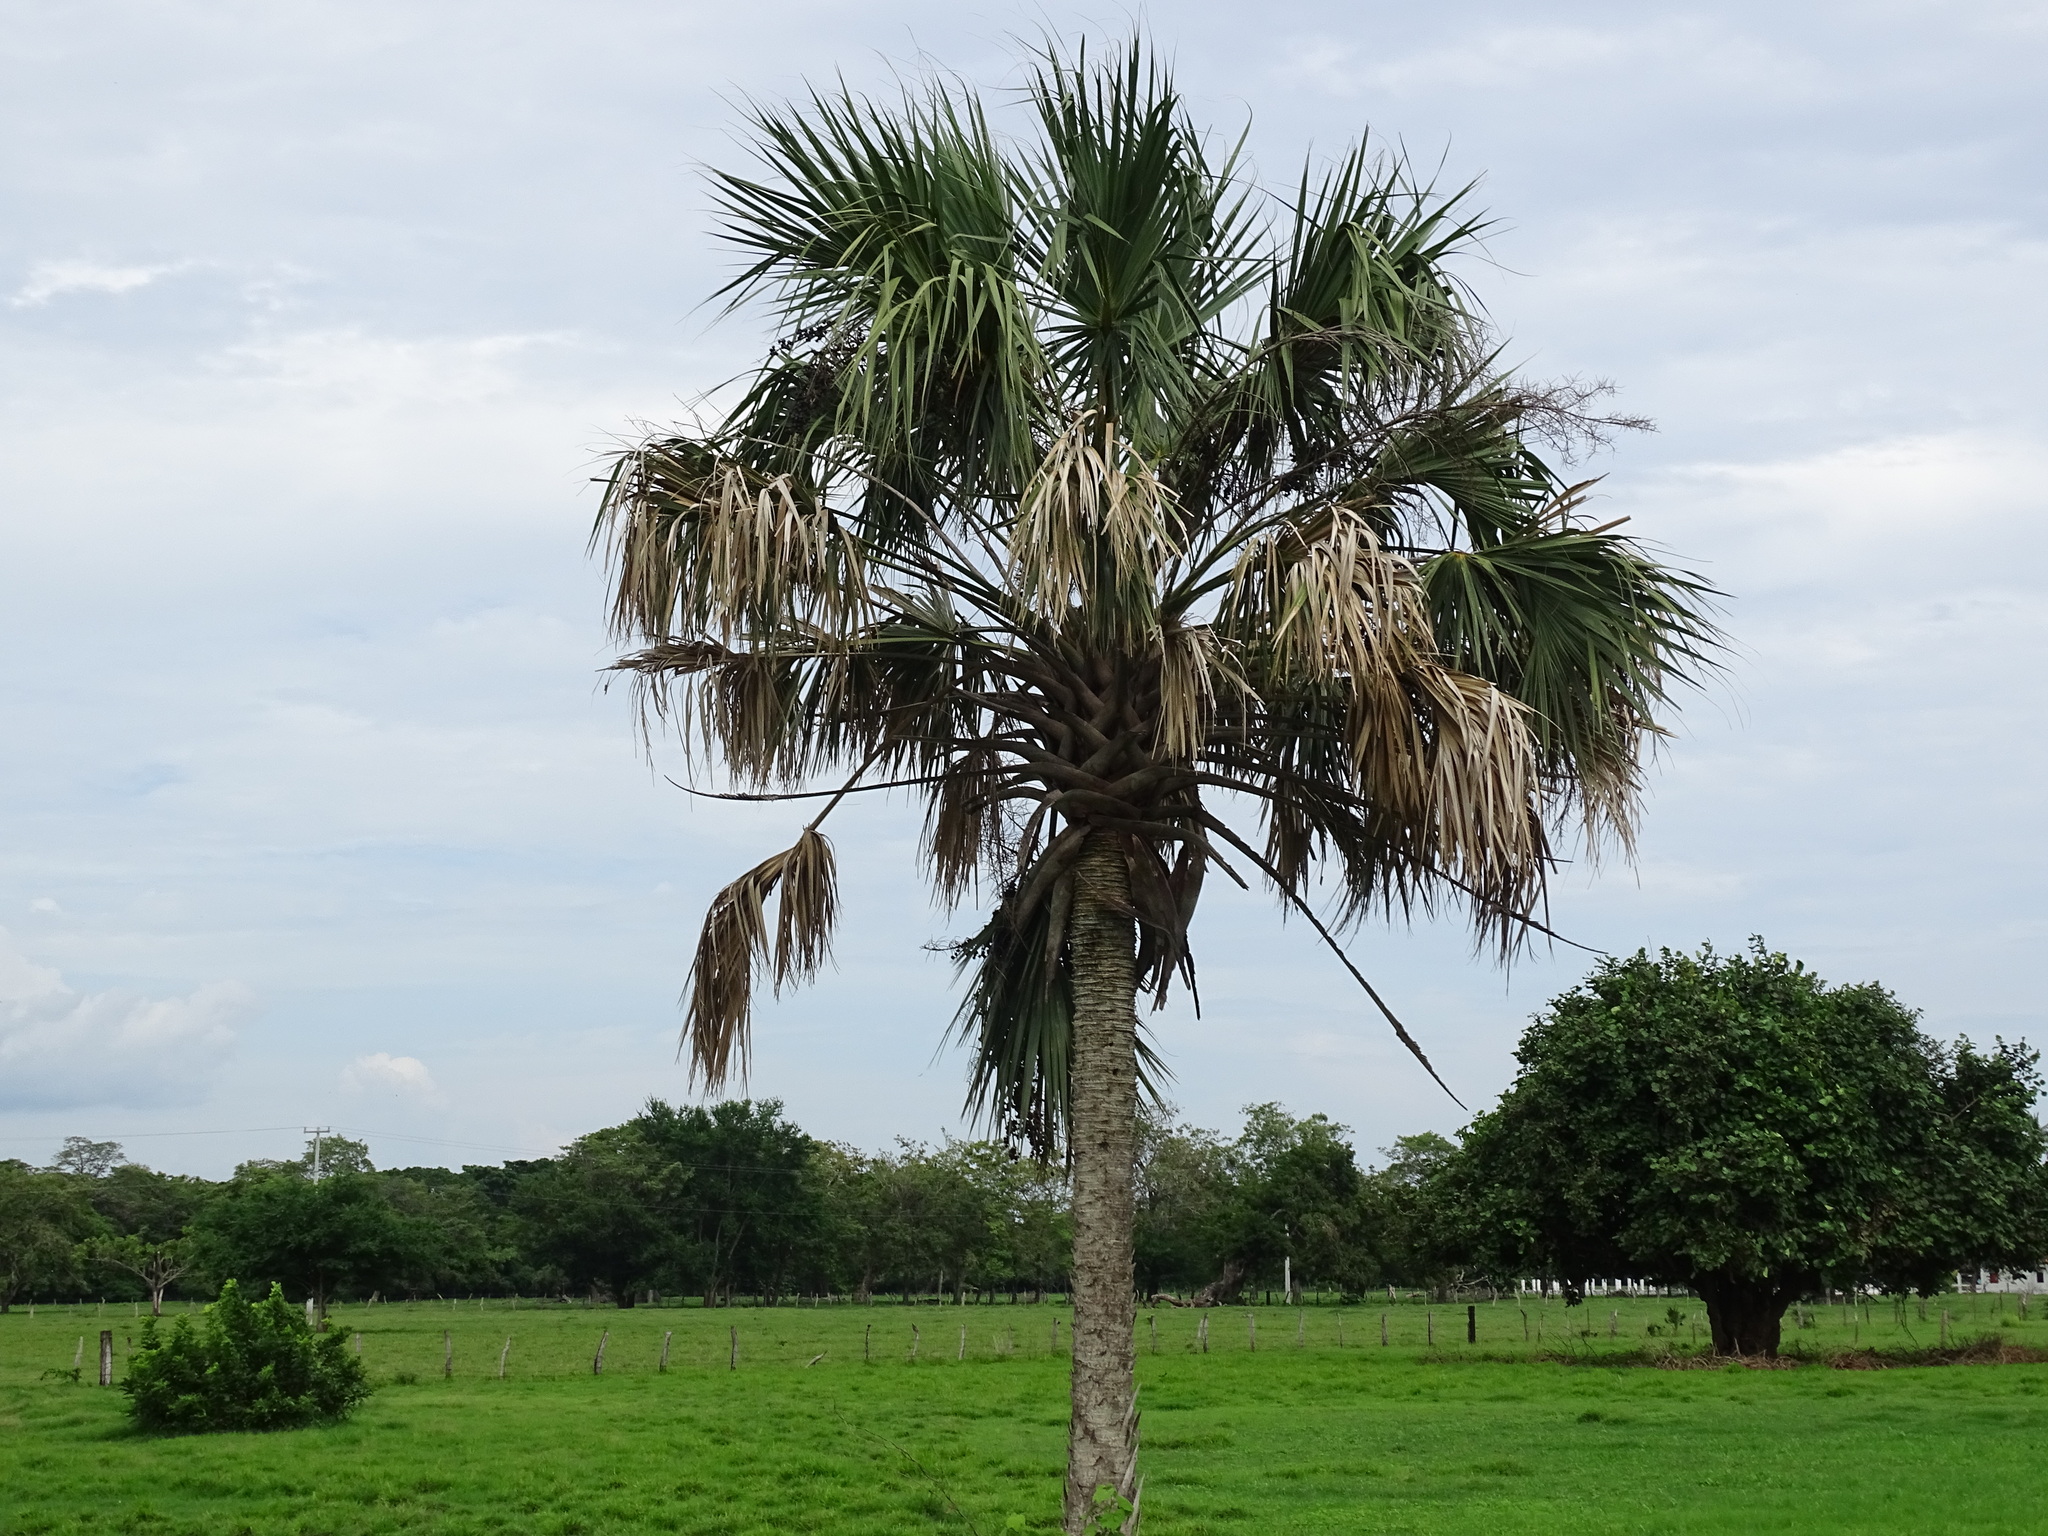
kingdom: Plantae
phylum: Tracheophyta
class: Liliopsida
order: Arecales
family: Arecaceae
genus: Sabal
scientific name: Sabal pumos
